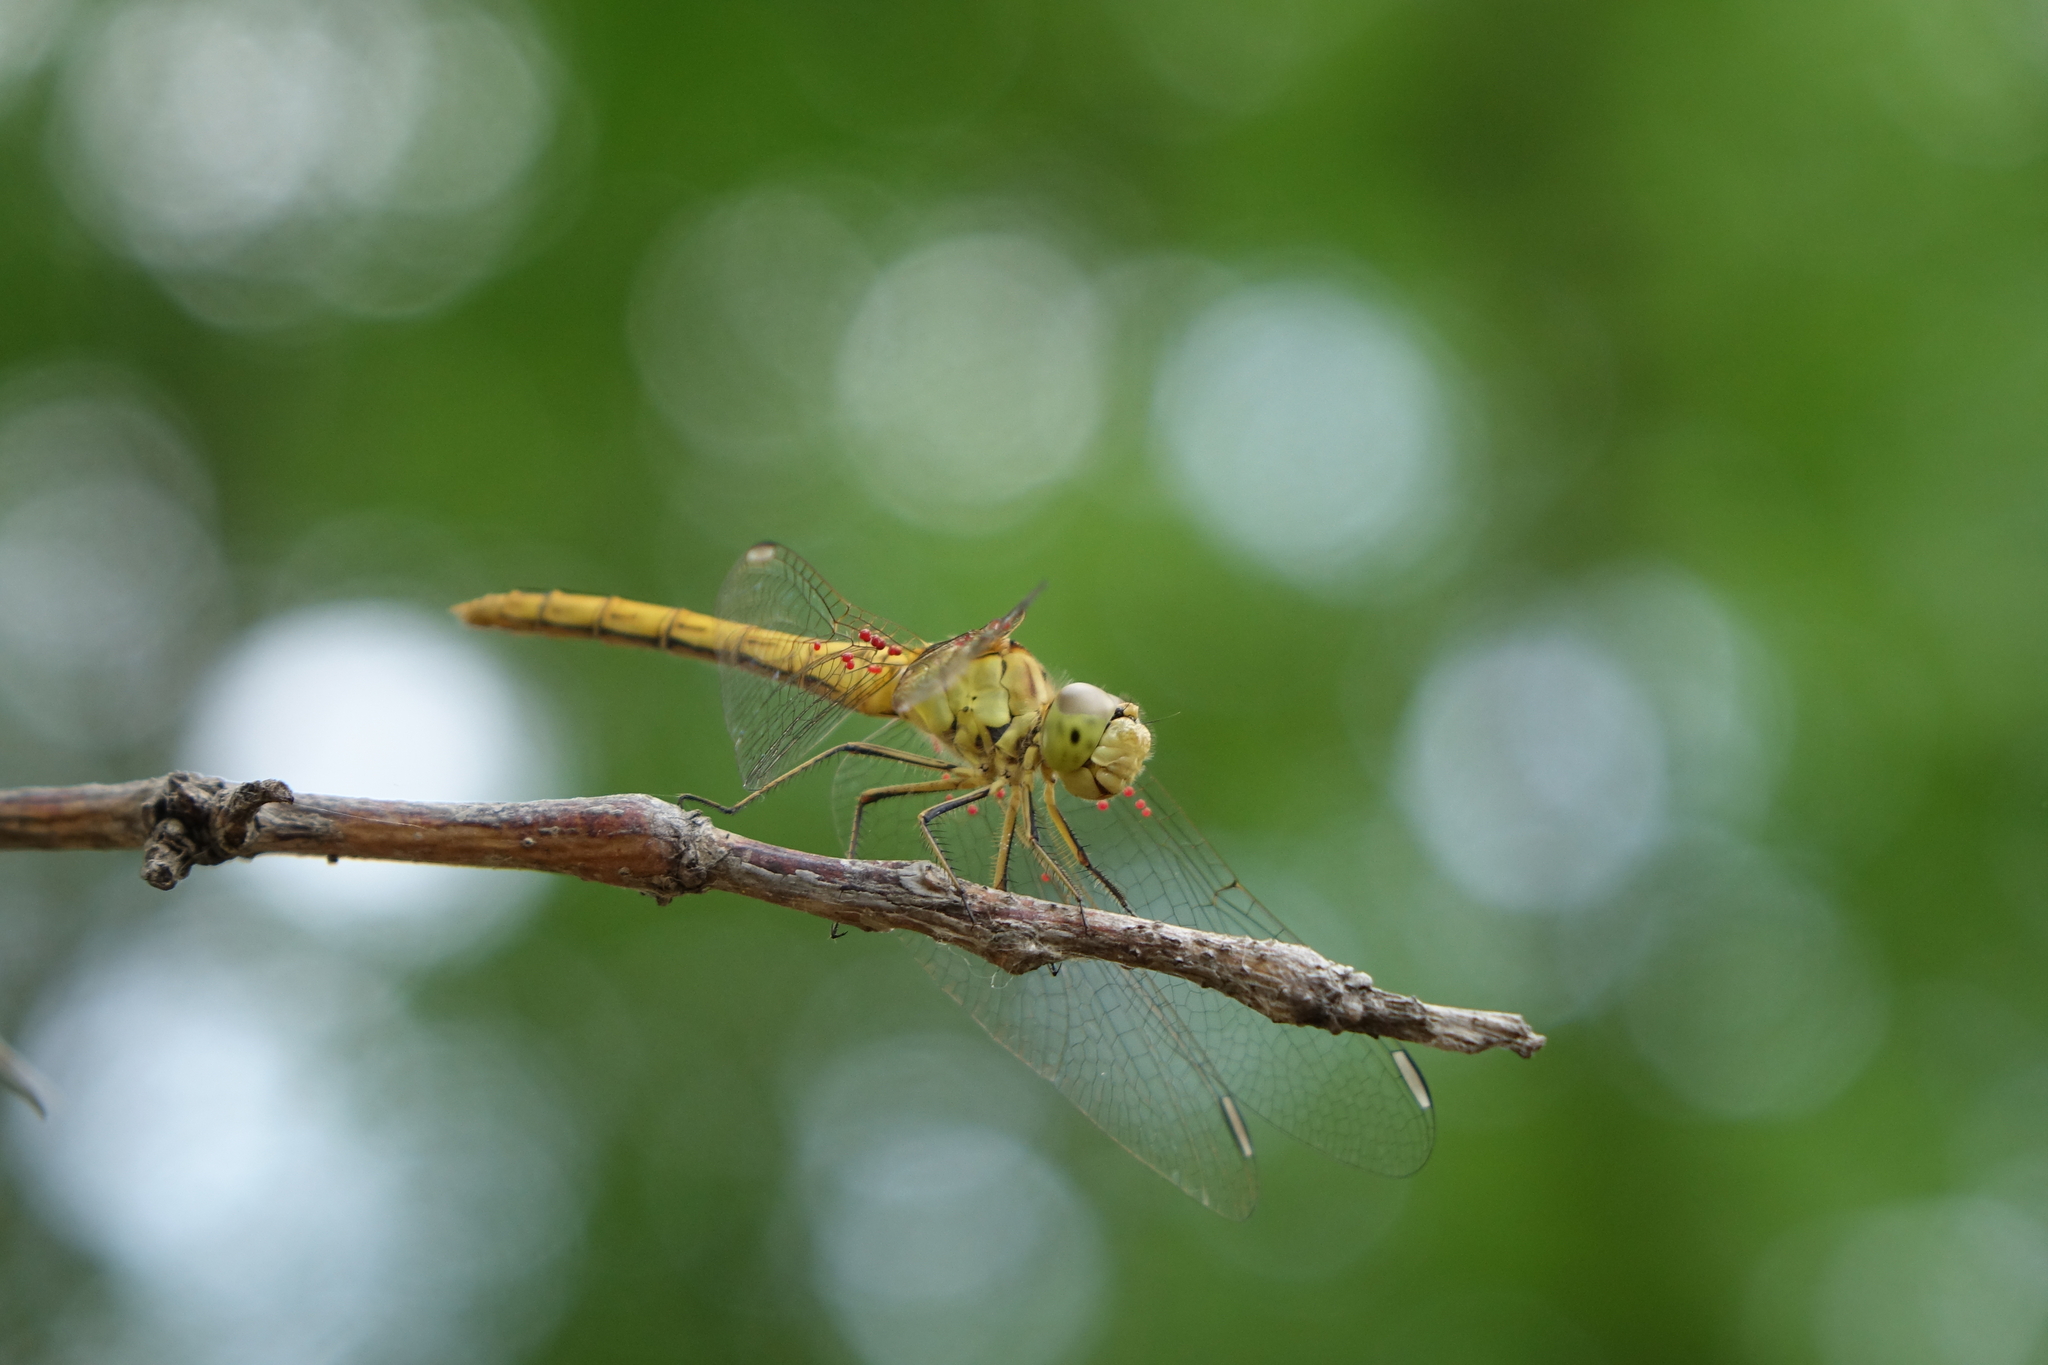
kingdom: Animalia
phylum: Arthropoda
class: Insecta
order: Odonata
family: Libellulidae
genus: Sympetrum
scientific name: Sympetrum meridionale
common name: Southern darter
